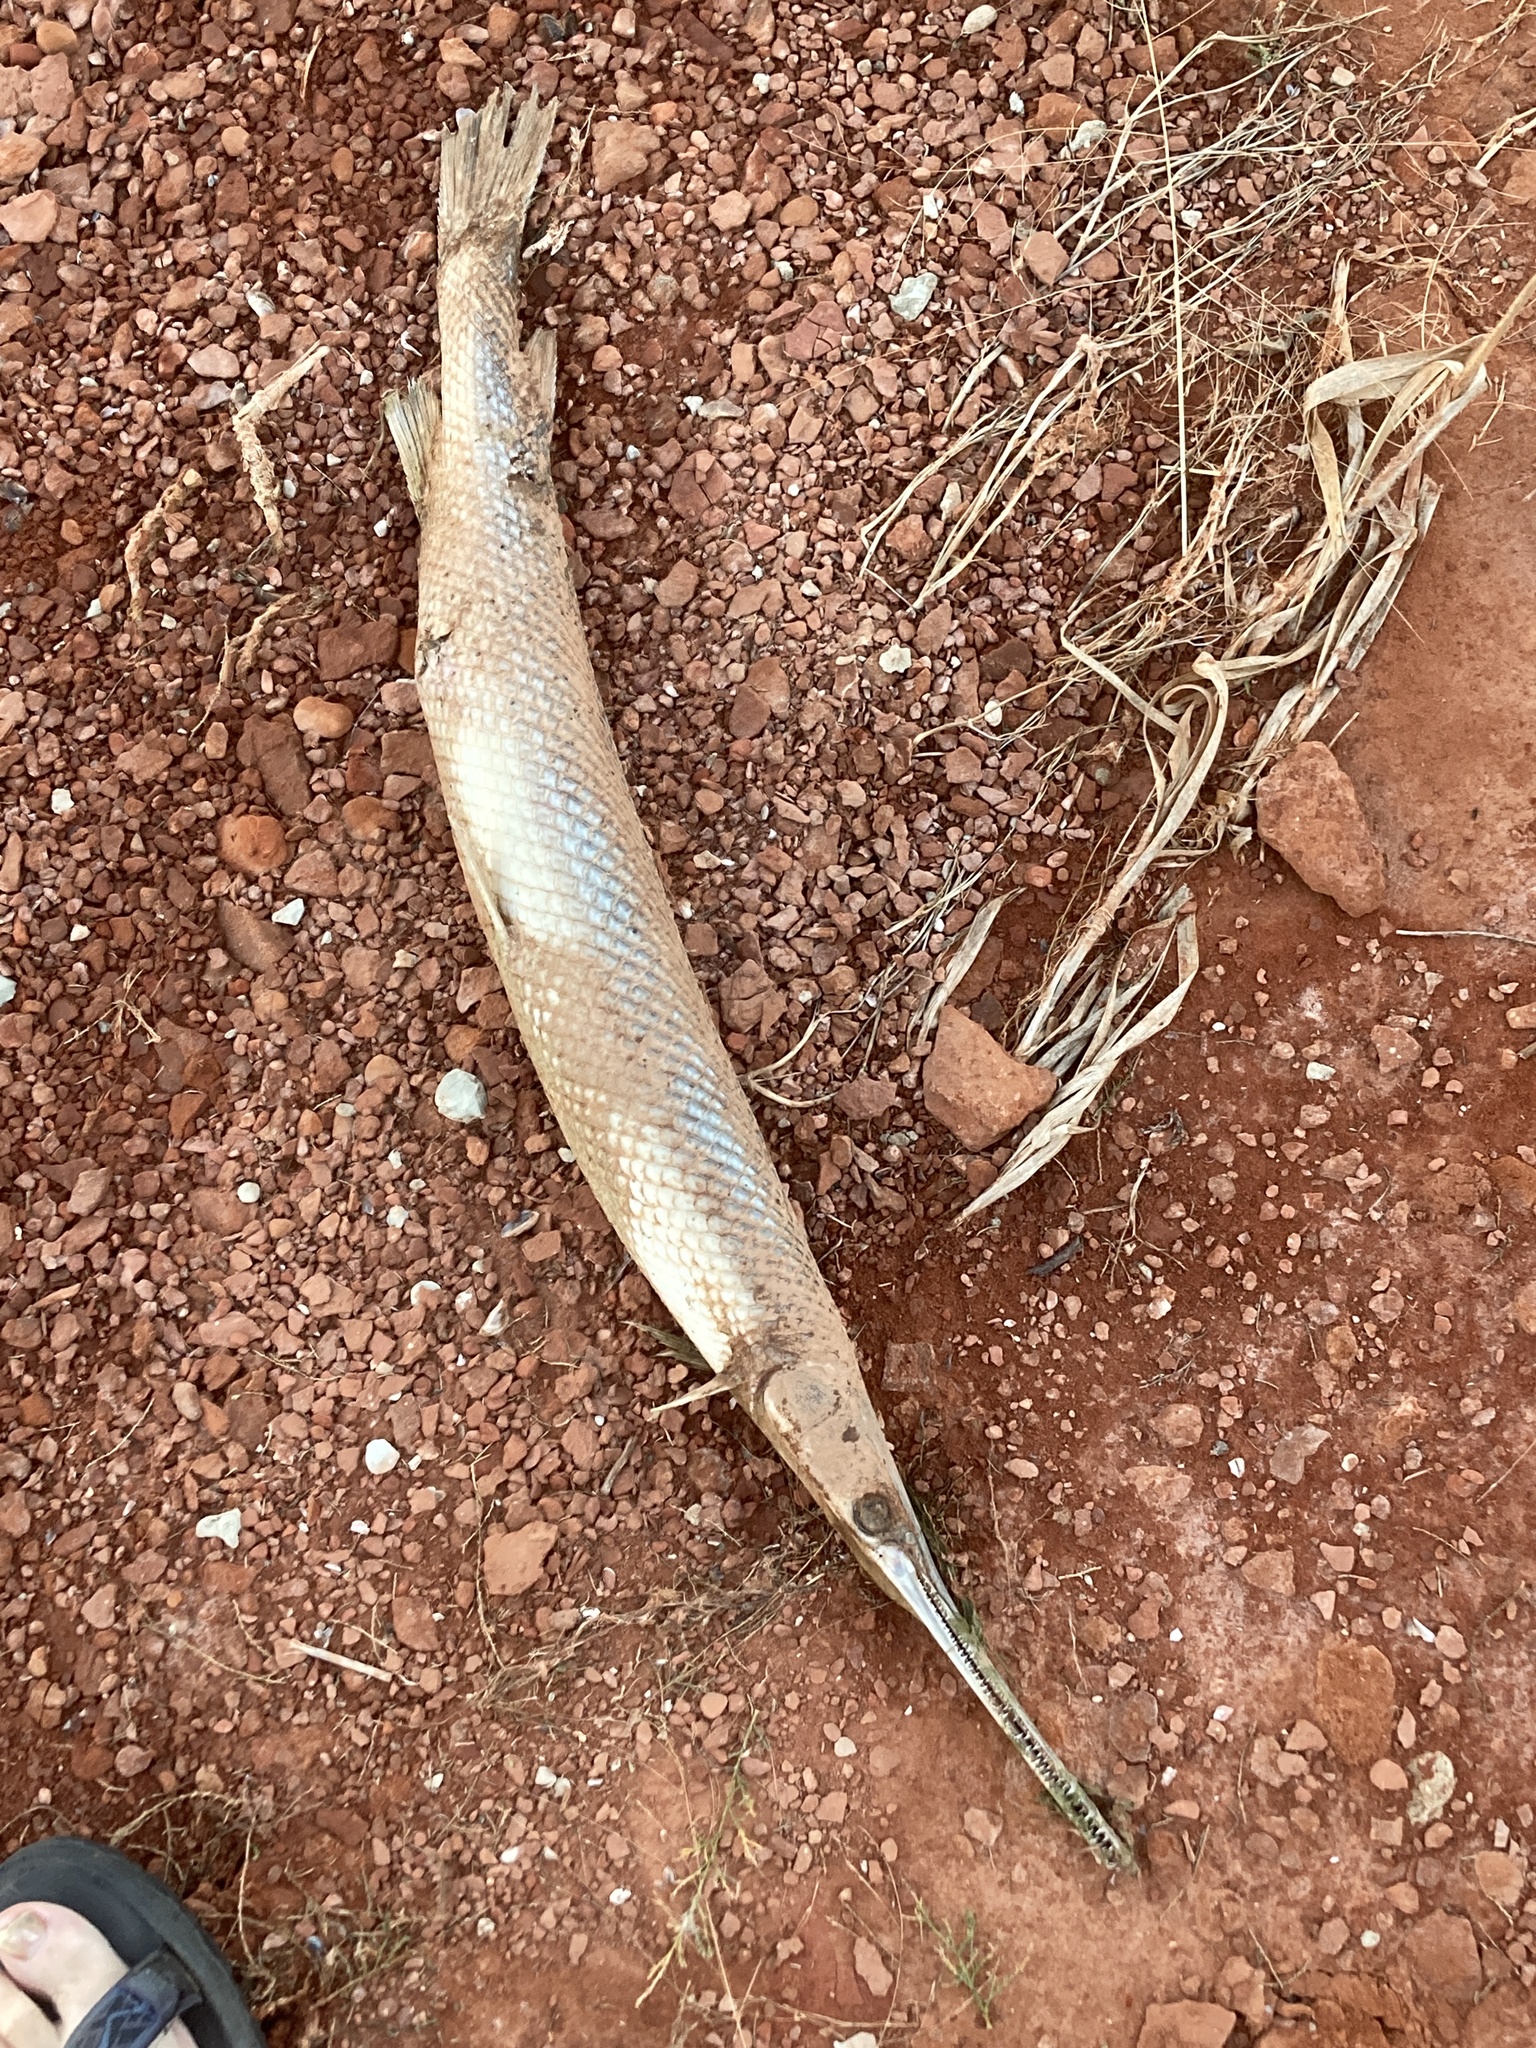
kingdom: Animalia
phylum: Chordata
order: Lepisosteiformes
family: Lepisosteidae
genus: Lepisosteus
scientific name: Lepisosteus osseus
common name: Longnose gar
